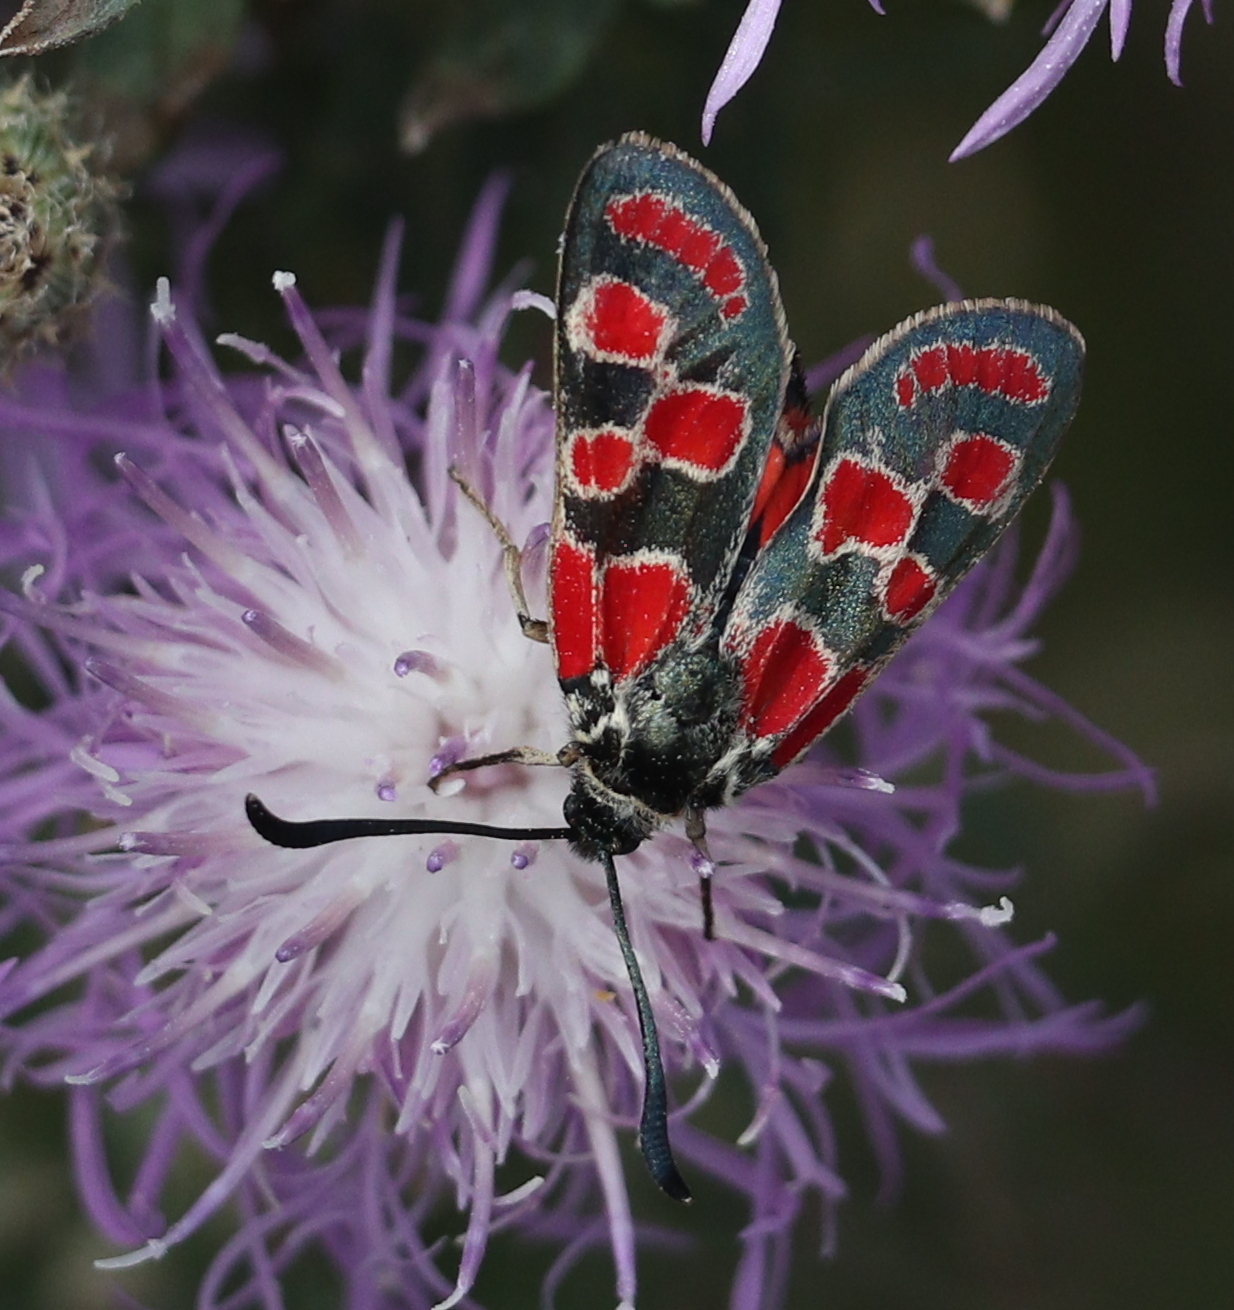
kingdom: Animalia
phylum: Arthropoda
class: Insecta
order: Lepidoptera
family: Zygaenidae
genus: Zygaena
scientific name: Zygaena carniolica
